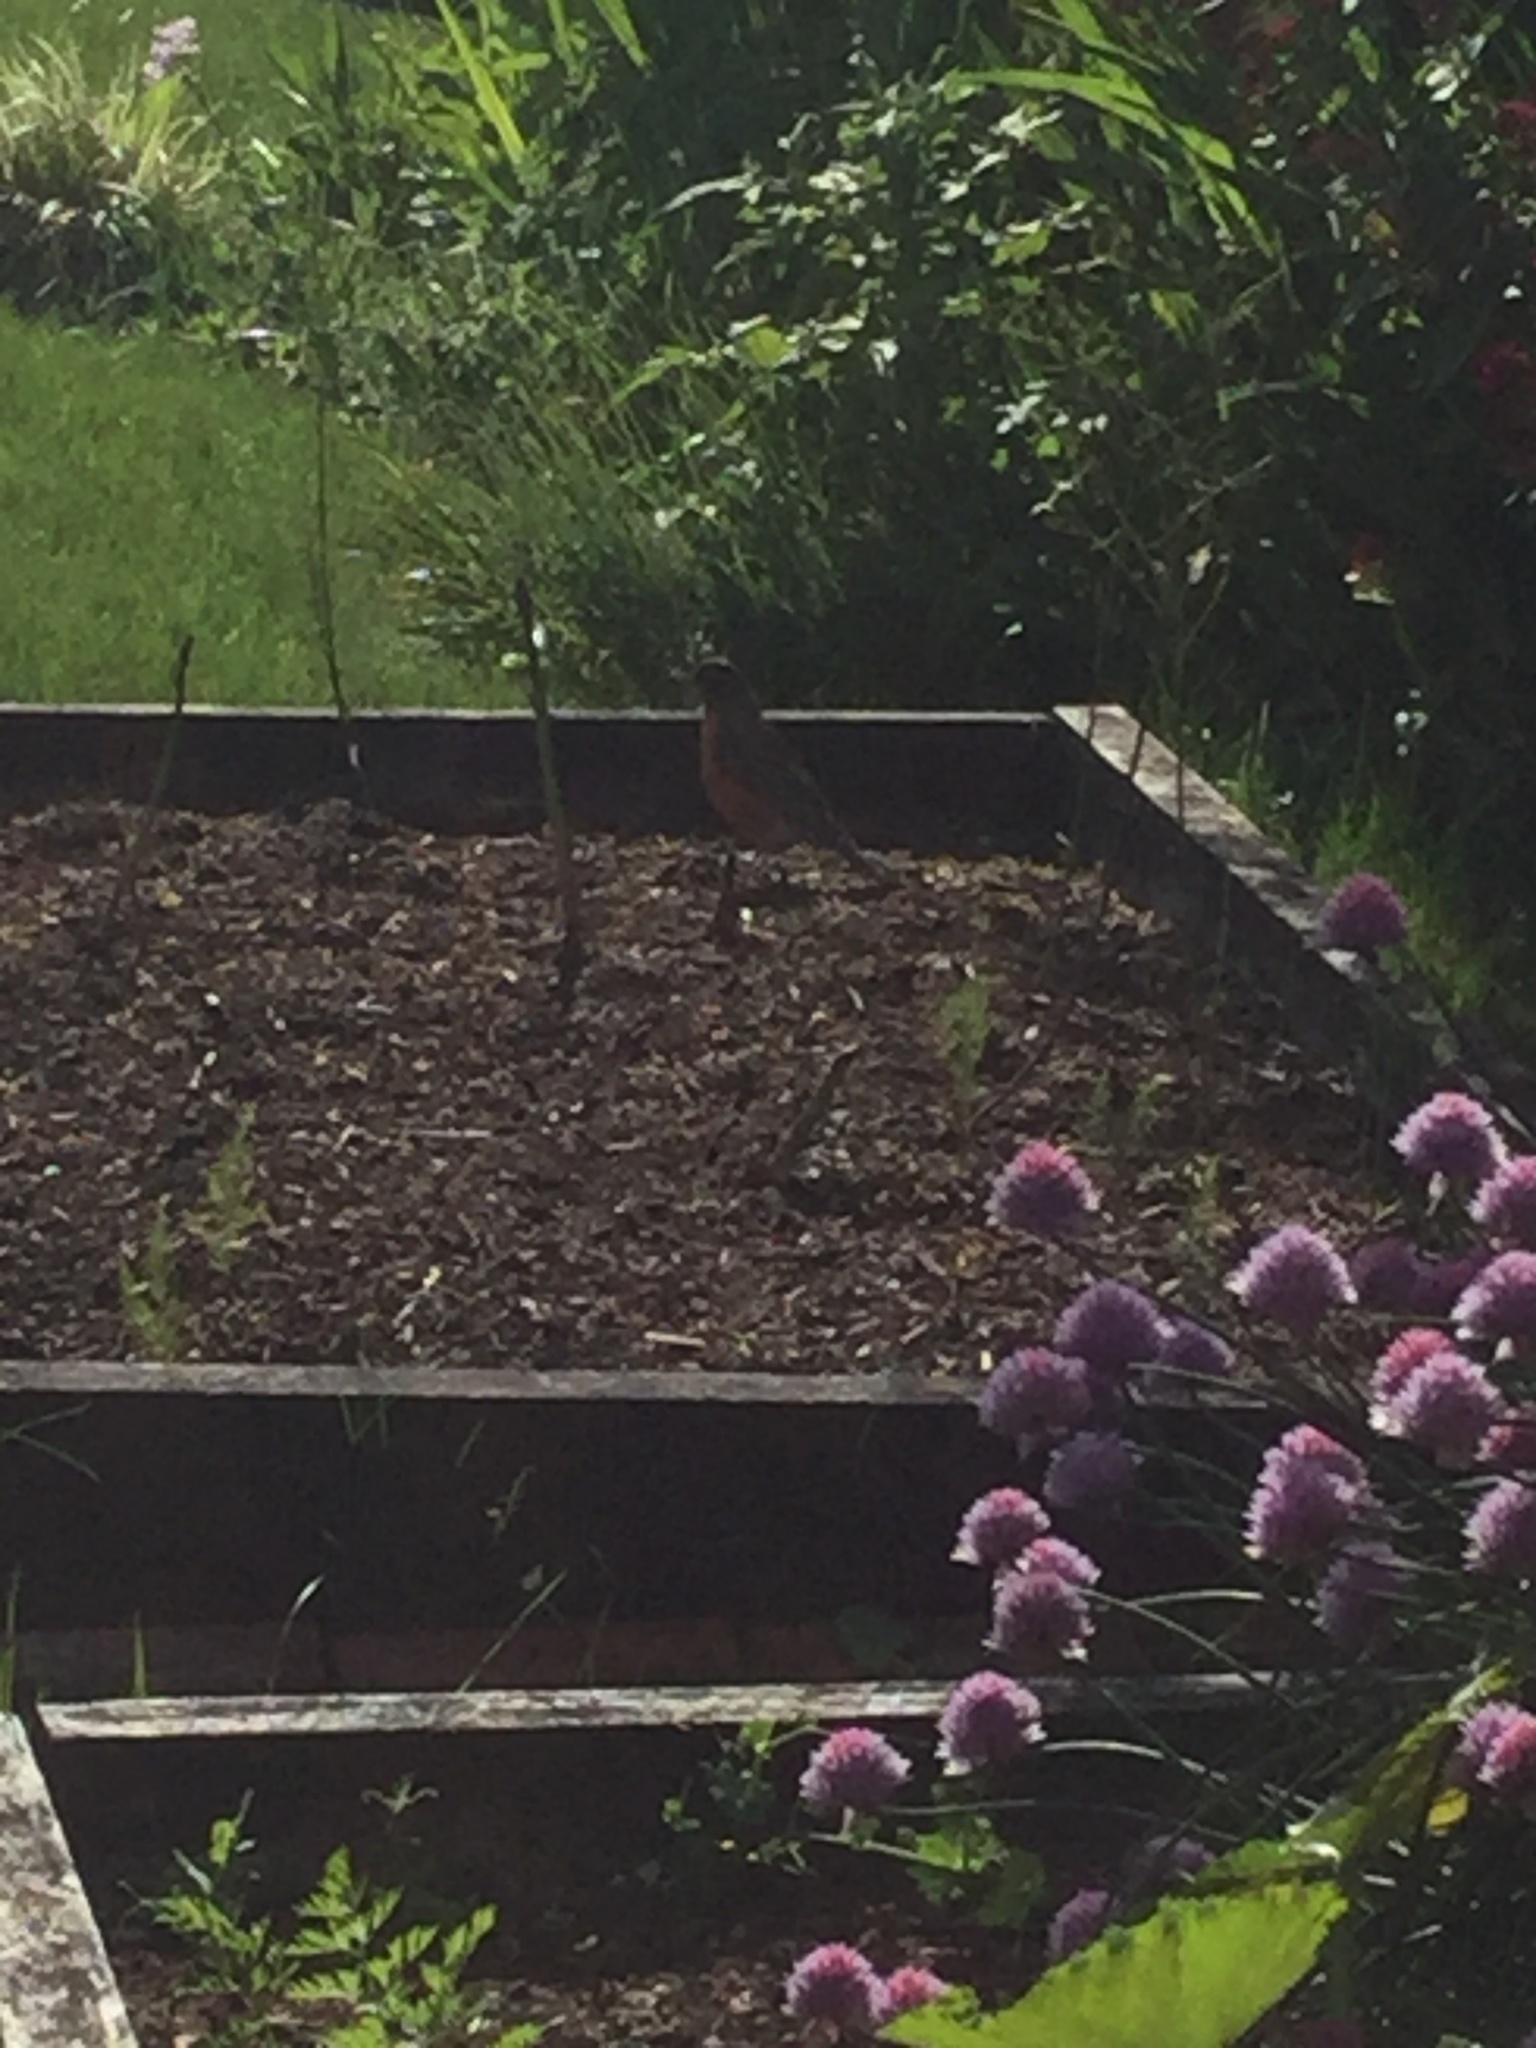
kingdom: Animalia
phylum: Chordata
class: Aves
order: Passeriformes
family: Turdidae
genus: Turdus
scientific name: Turdus migratorius
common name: American robin
